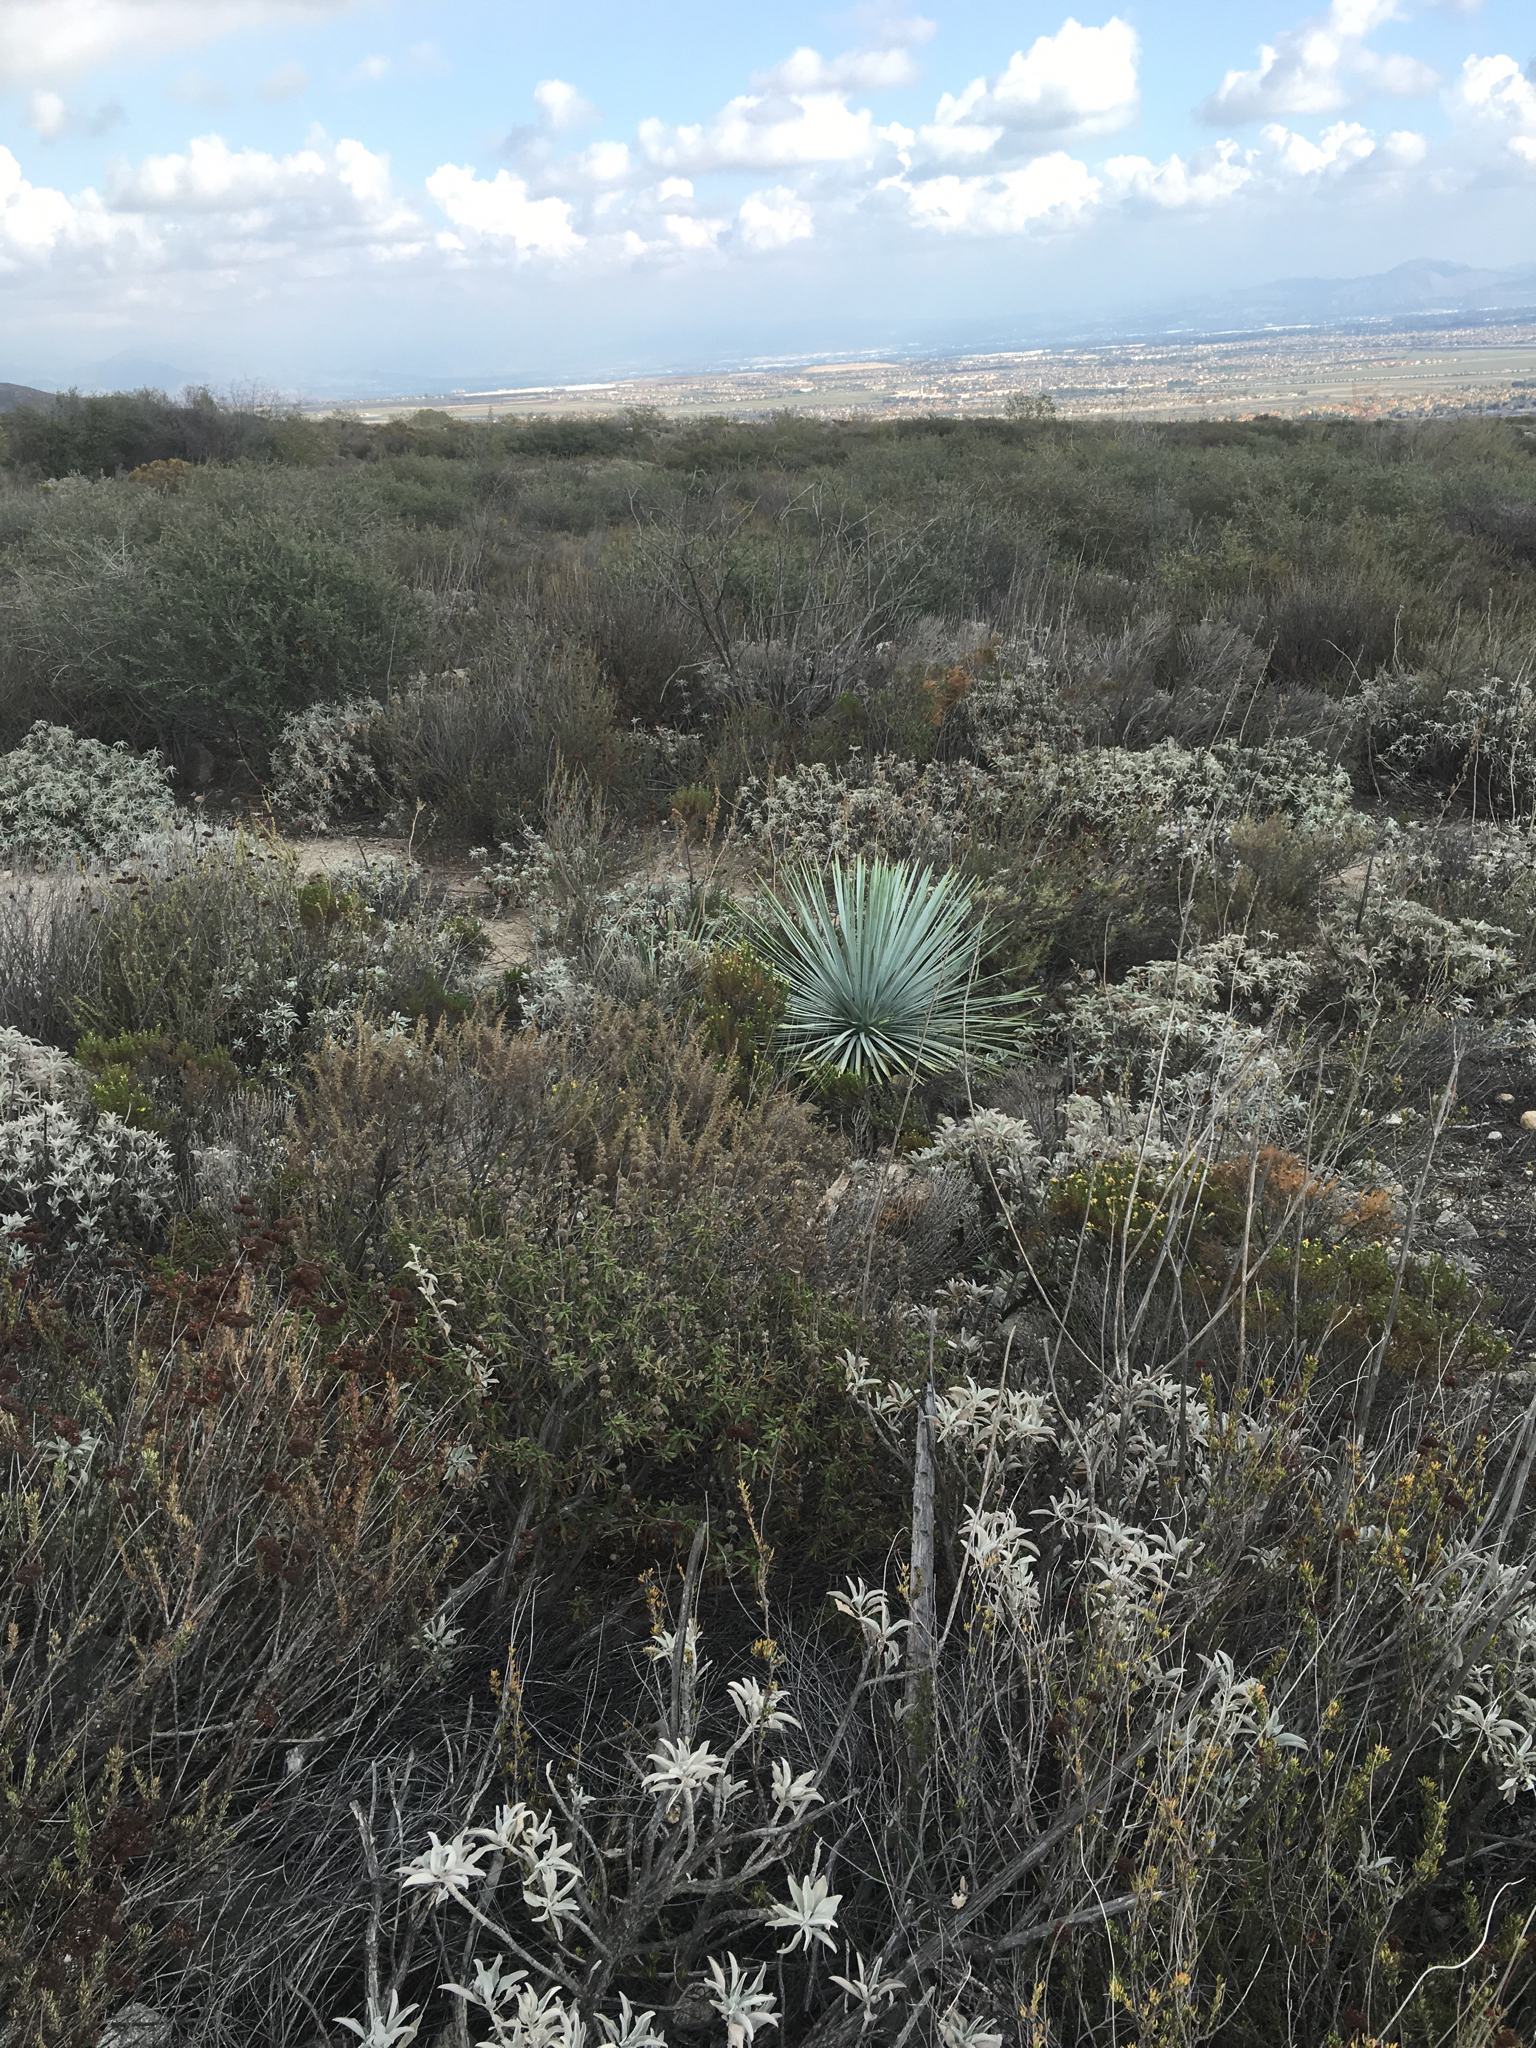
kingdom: Plantae
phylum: Tracheophyta
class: Liliopsida
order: Asparagales
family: Asparagaceae
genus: Hesperoyucca
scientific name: Hesperoyucca whipplei
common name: Our lord's-candle
